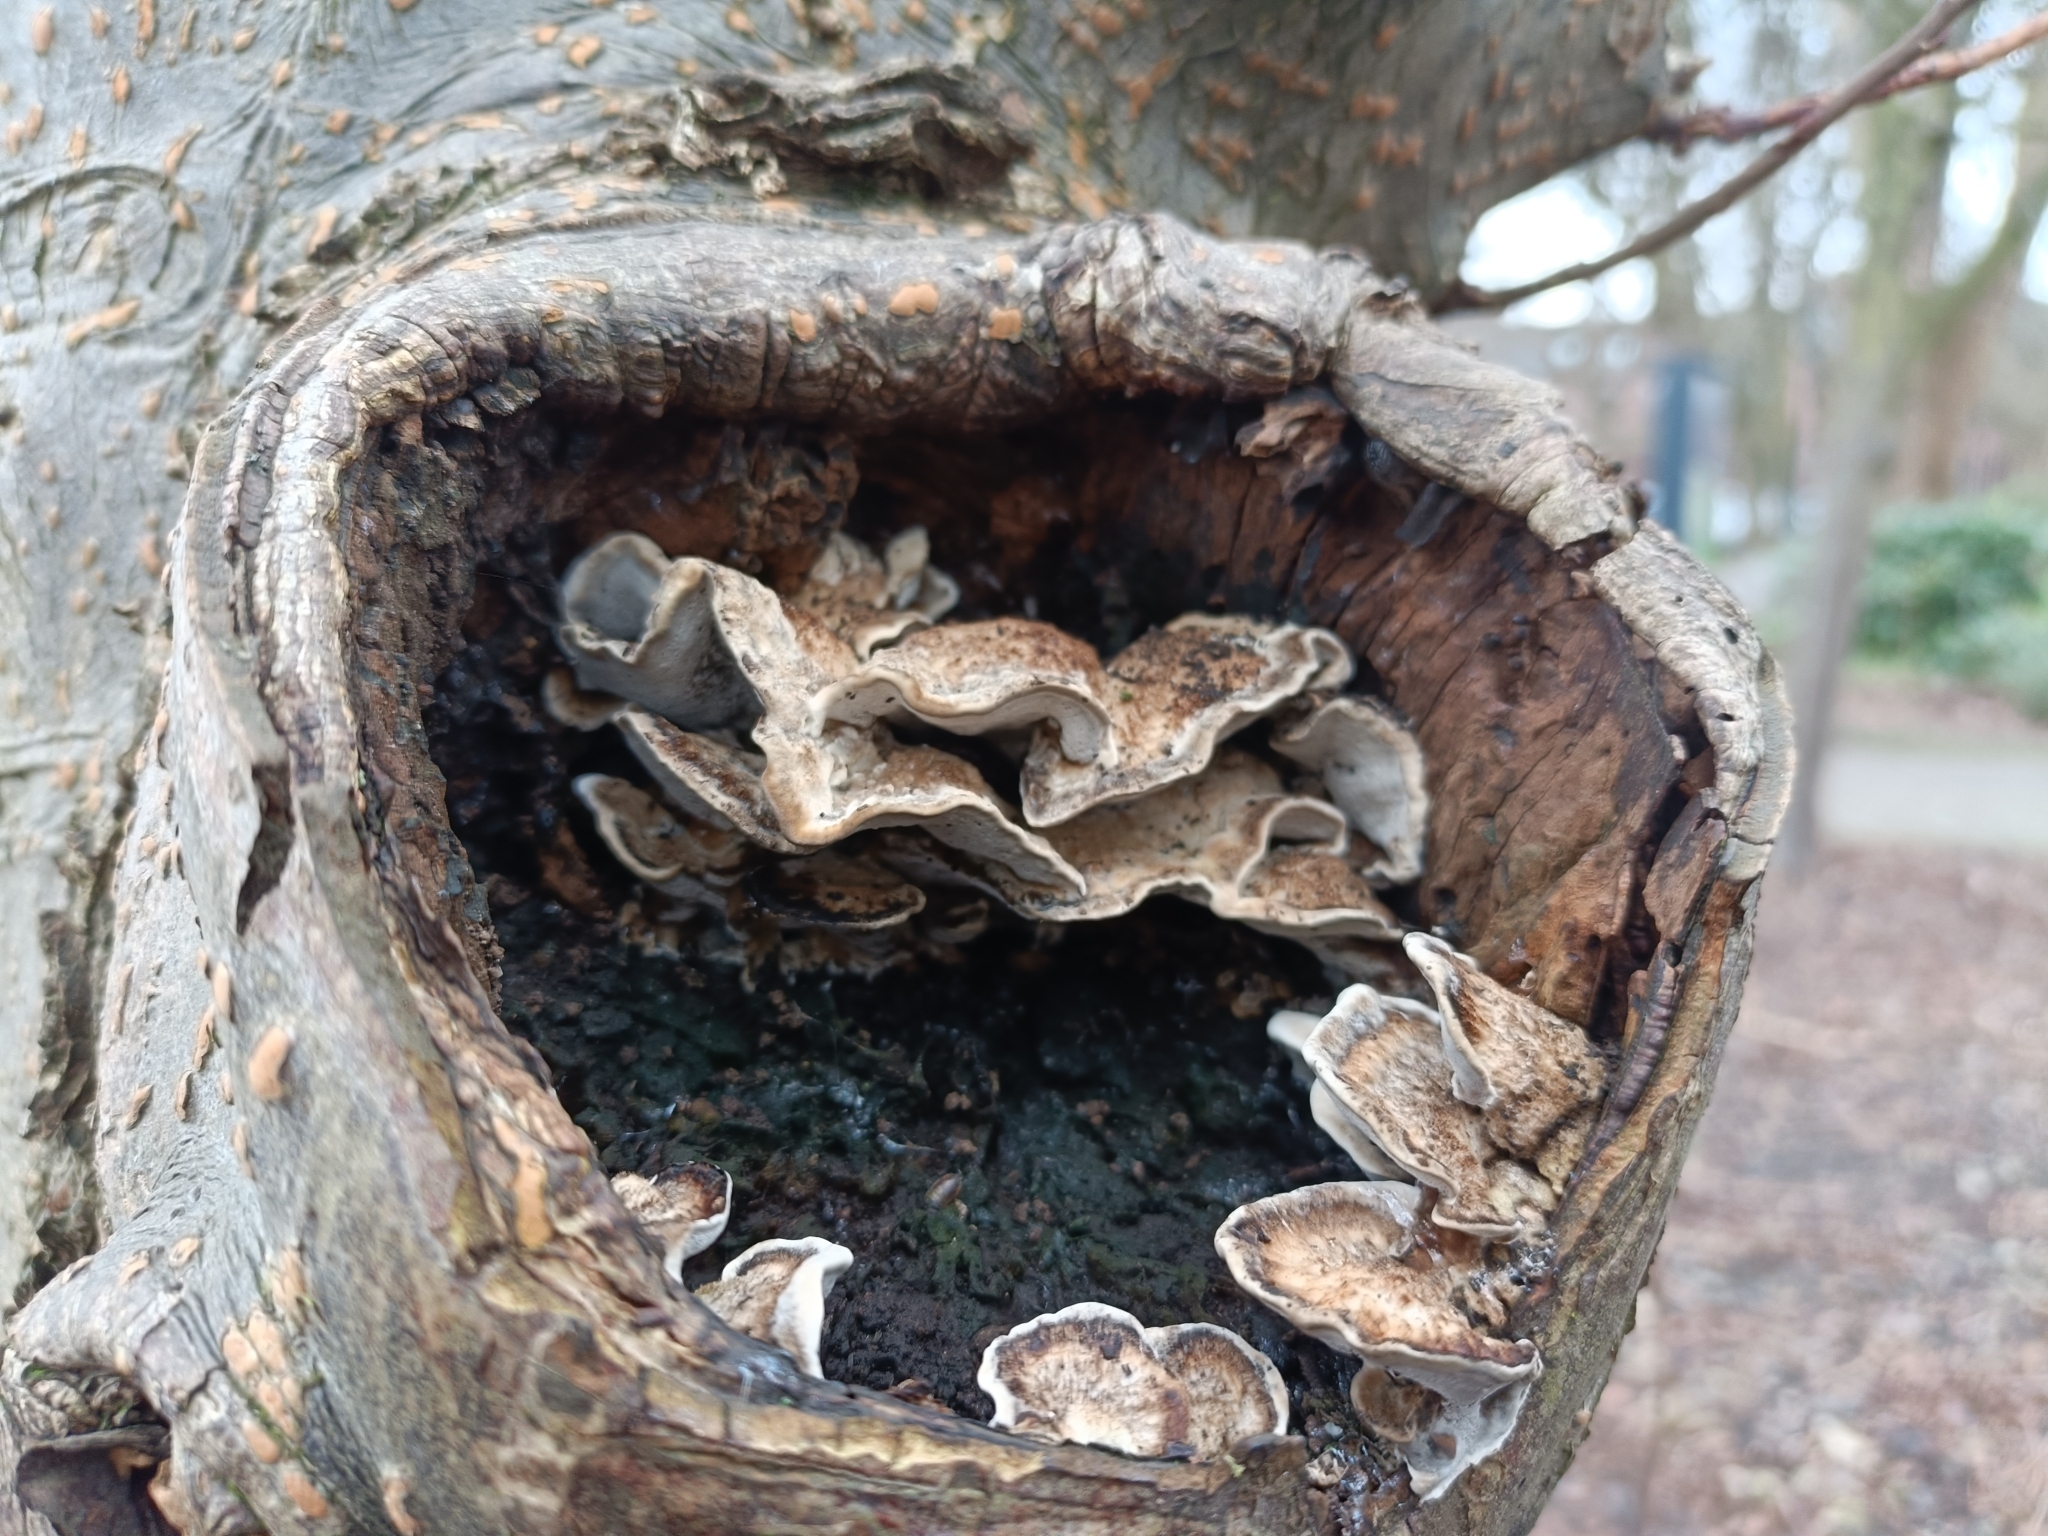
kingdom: Fungi
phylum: Basidiomycota
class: Agaricomycetes
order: Polyporales
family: Phanerochaetaceae
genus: Bjerkandera
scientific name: Bjerkandera adusta
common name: Smoky bracket
